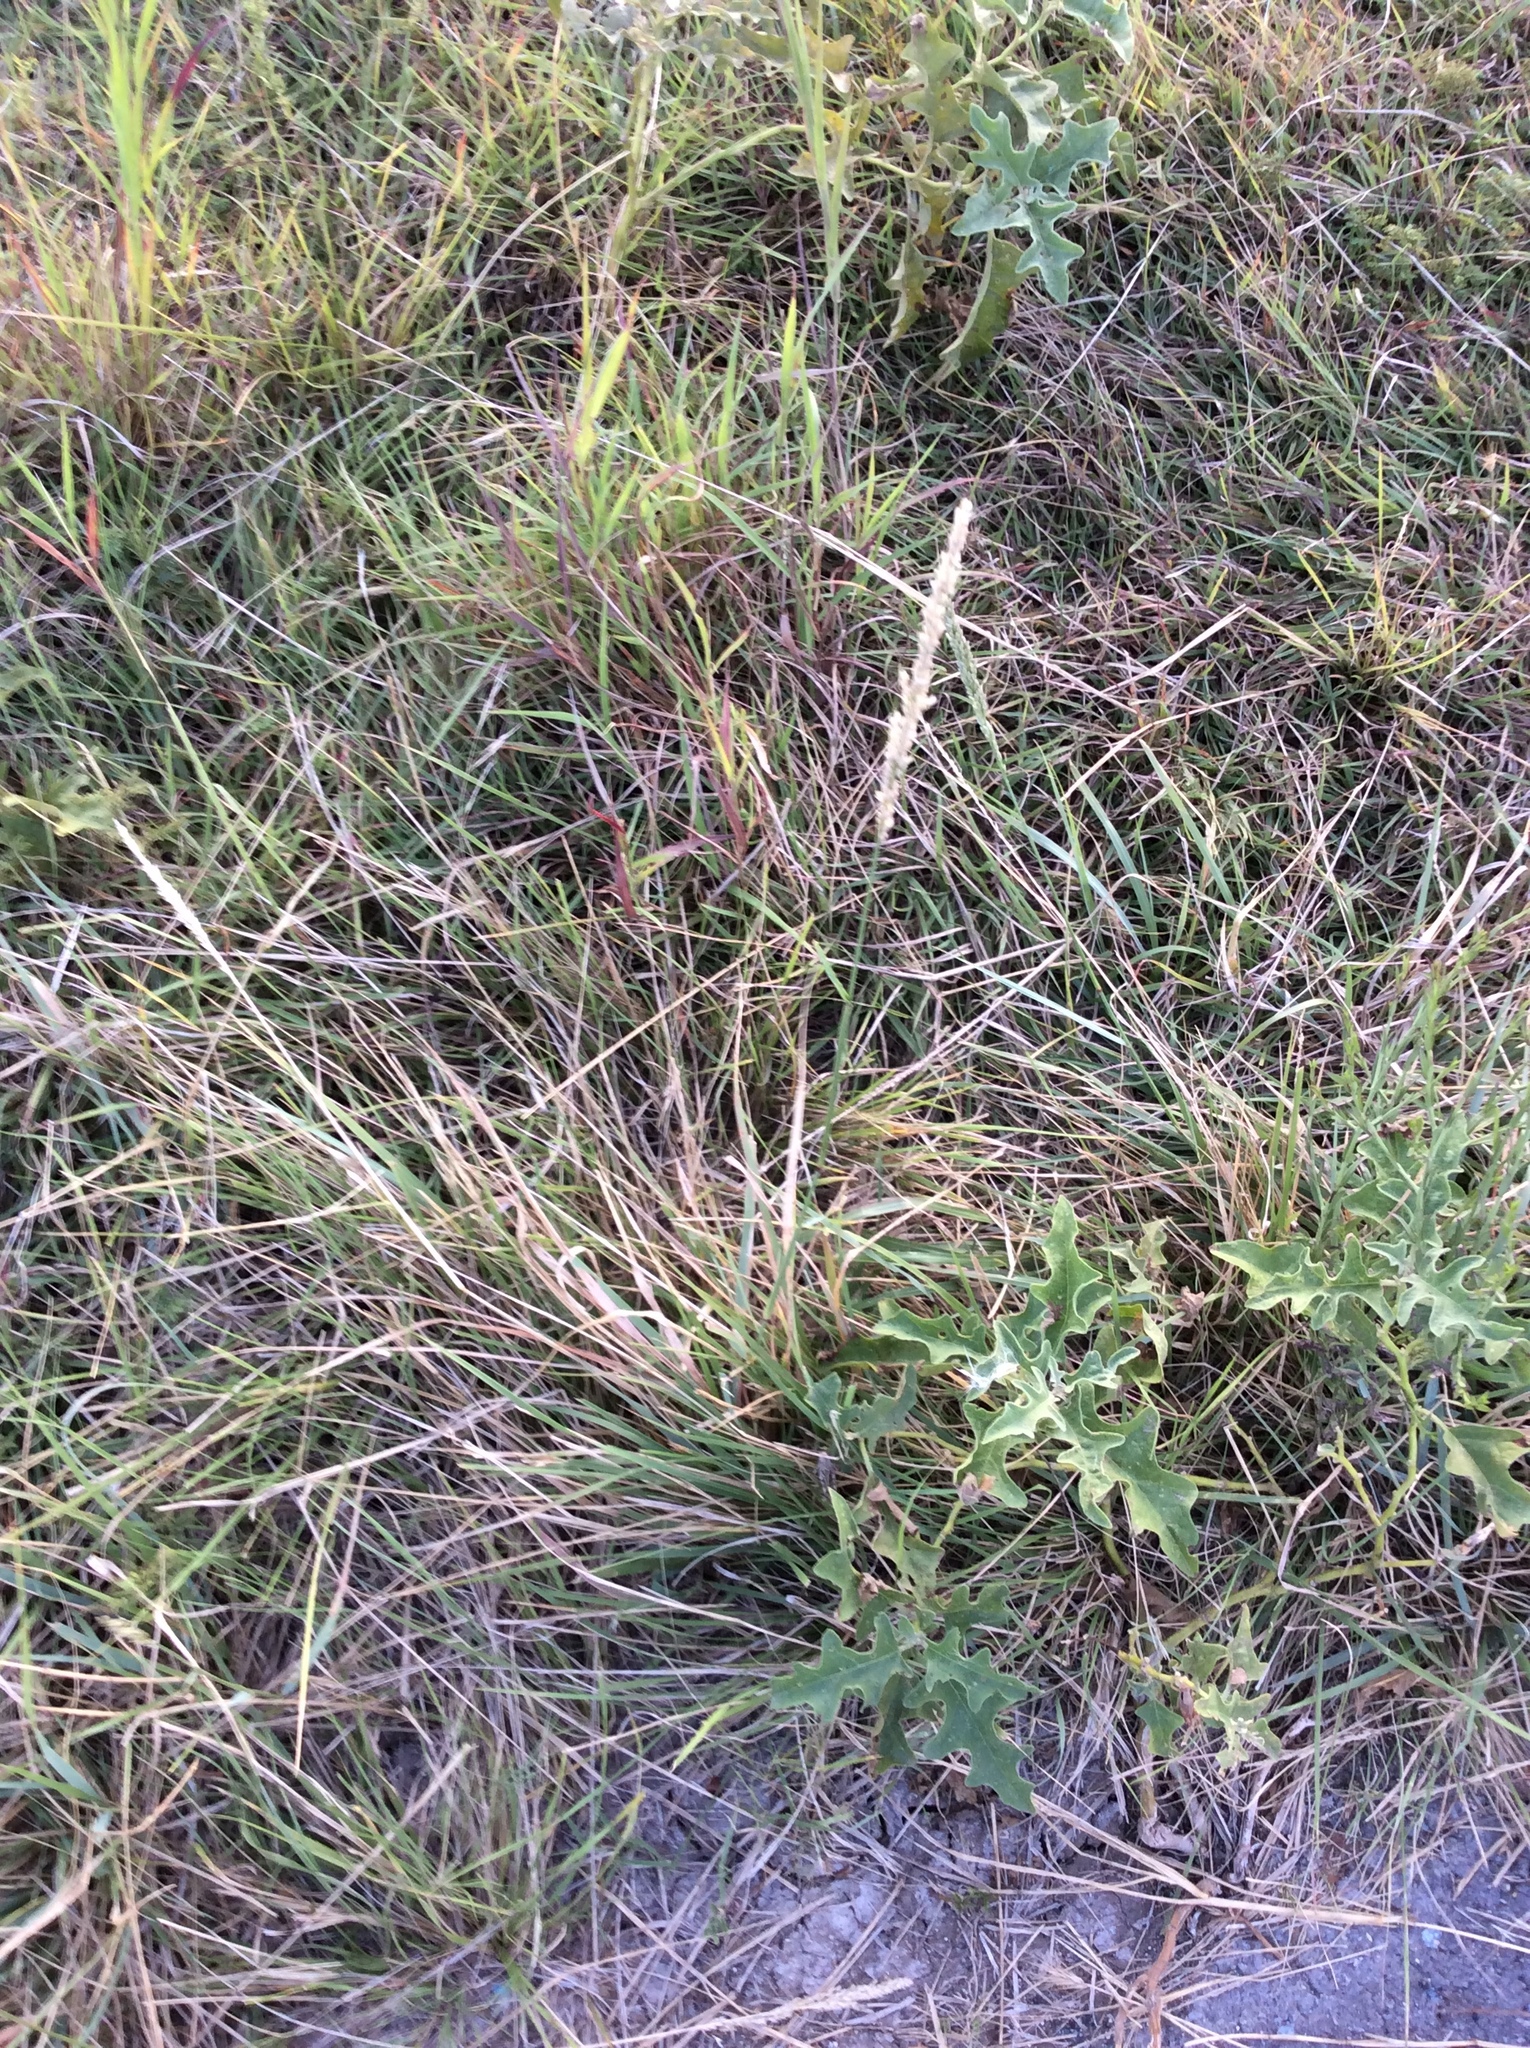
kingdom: Plantae
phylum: Tracheophyta
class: Liliopsida
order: Poales
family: Poaceae
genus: Tridens
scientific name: Tridens albescens
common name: White tridens
